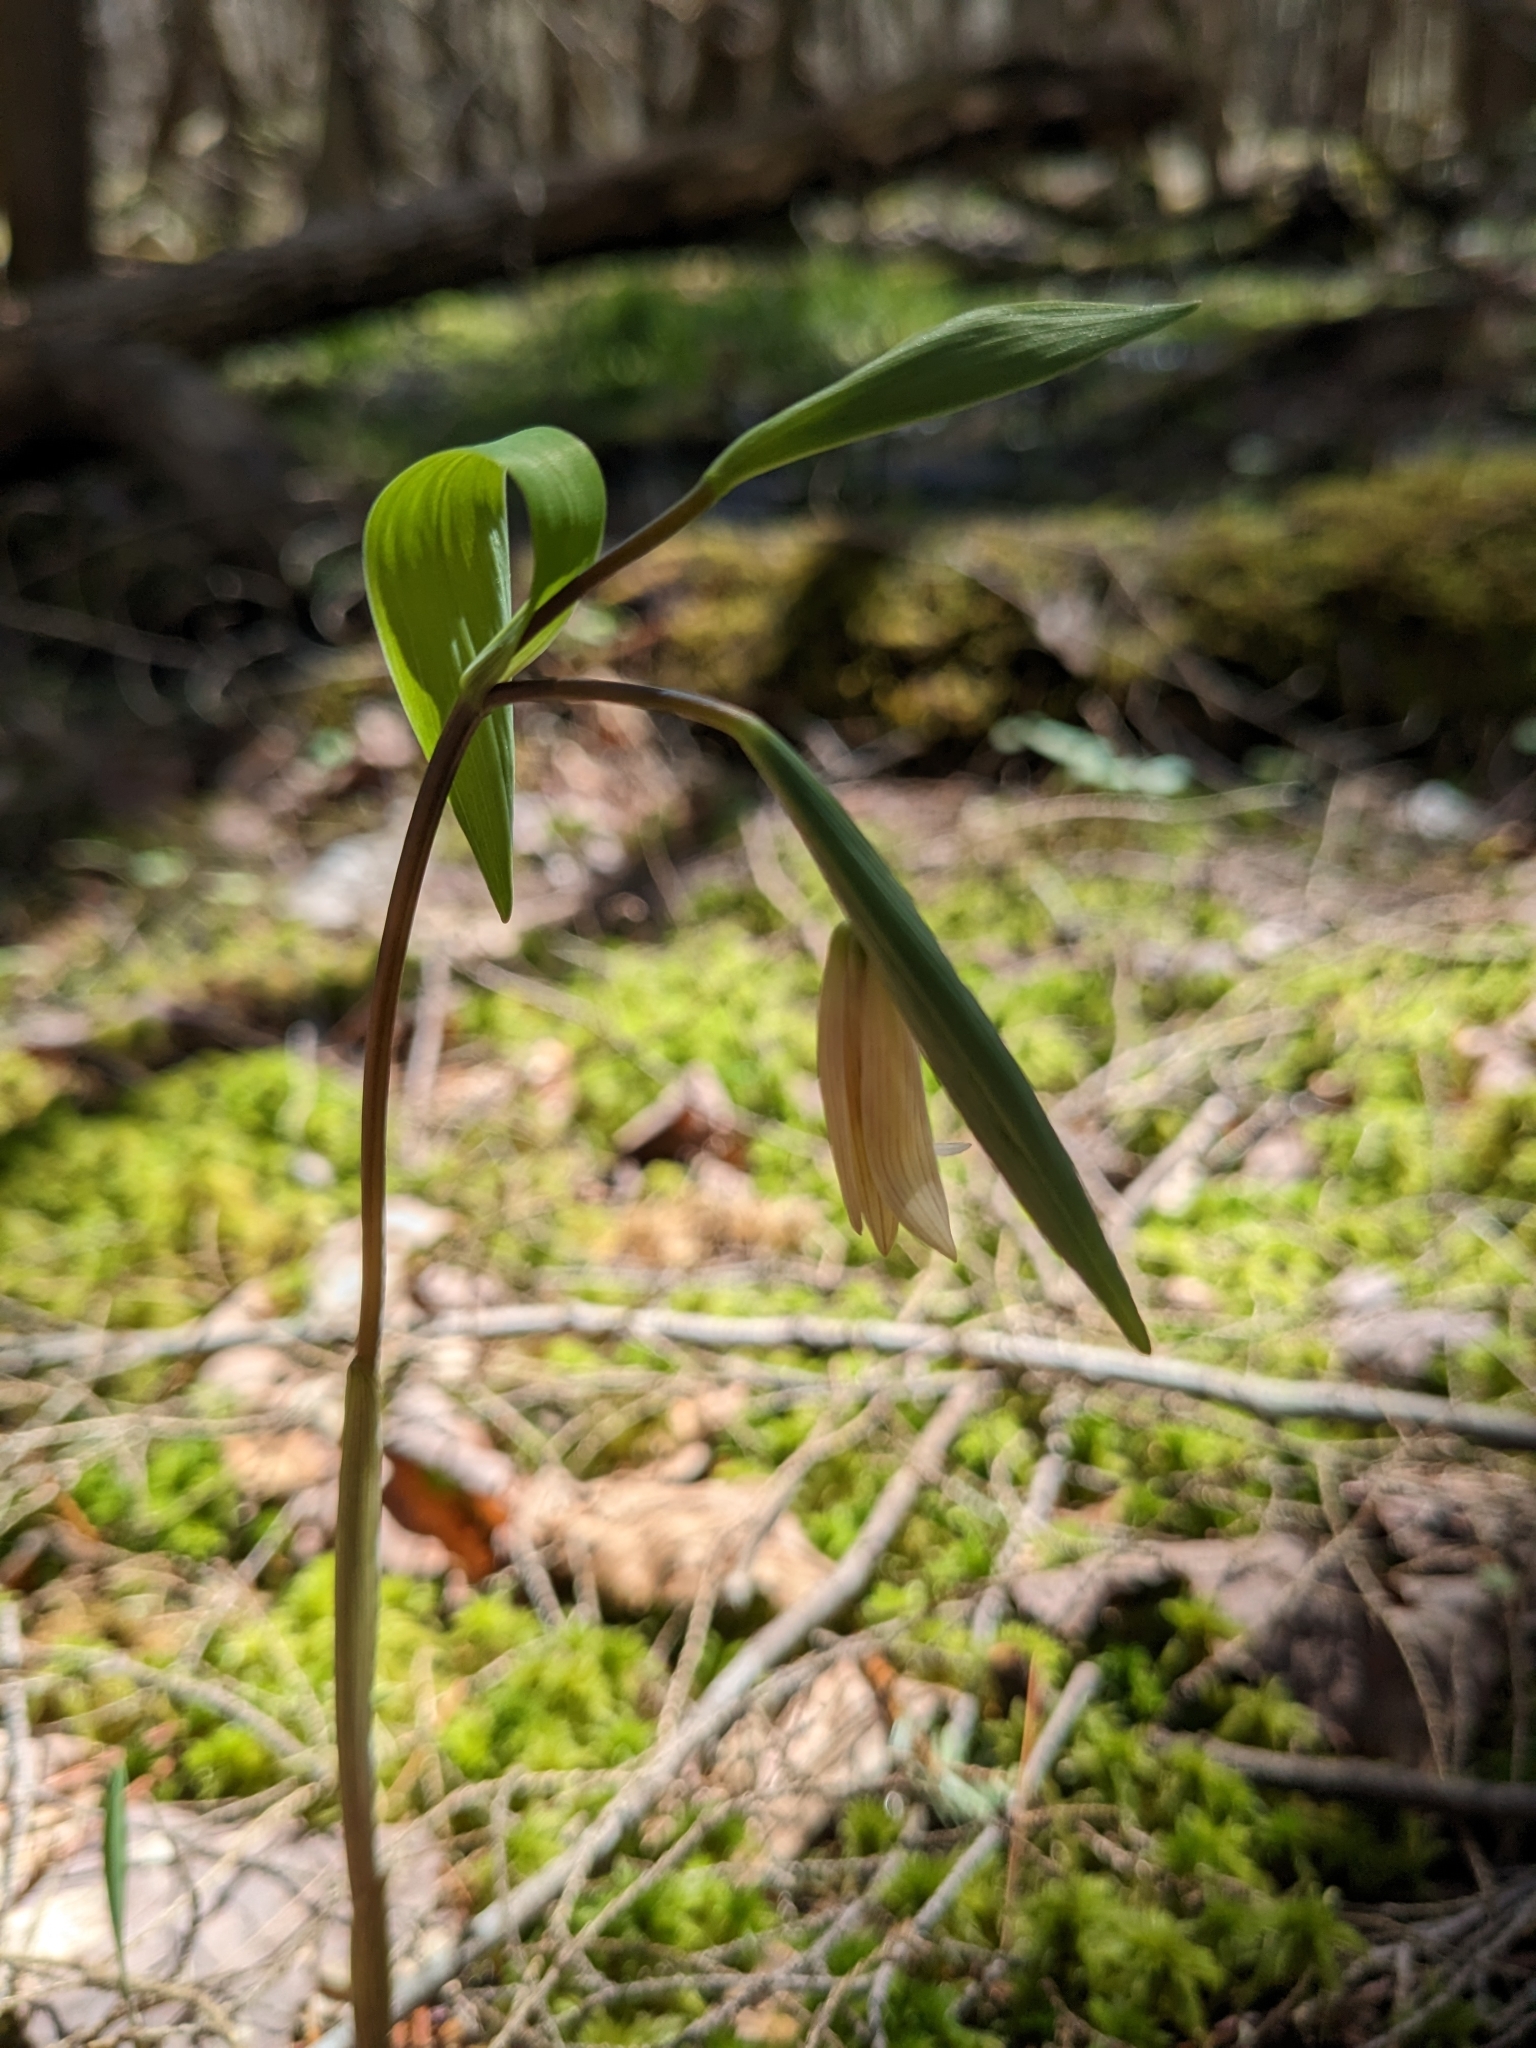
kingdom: Plantae
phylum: Tracheophyta
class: Liliopsida
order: Liliales
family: Colchicaceae
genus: Uvularia
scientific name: Uvularia sessilifolia
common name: Straw-lily
